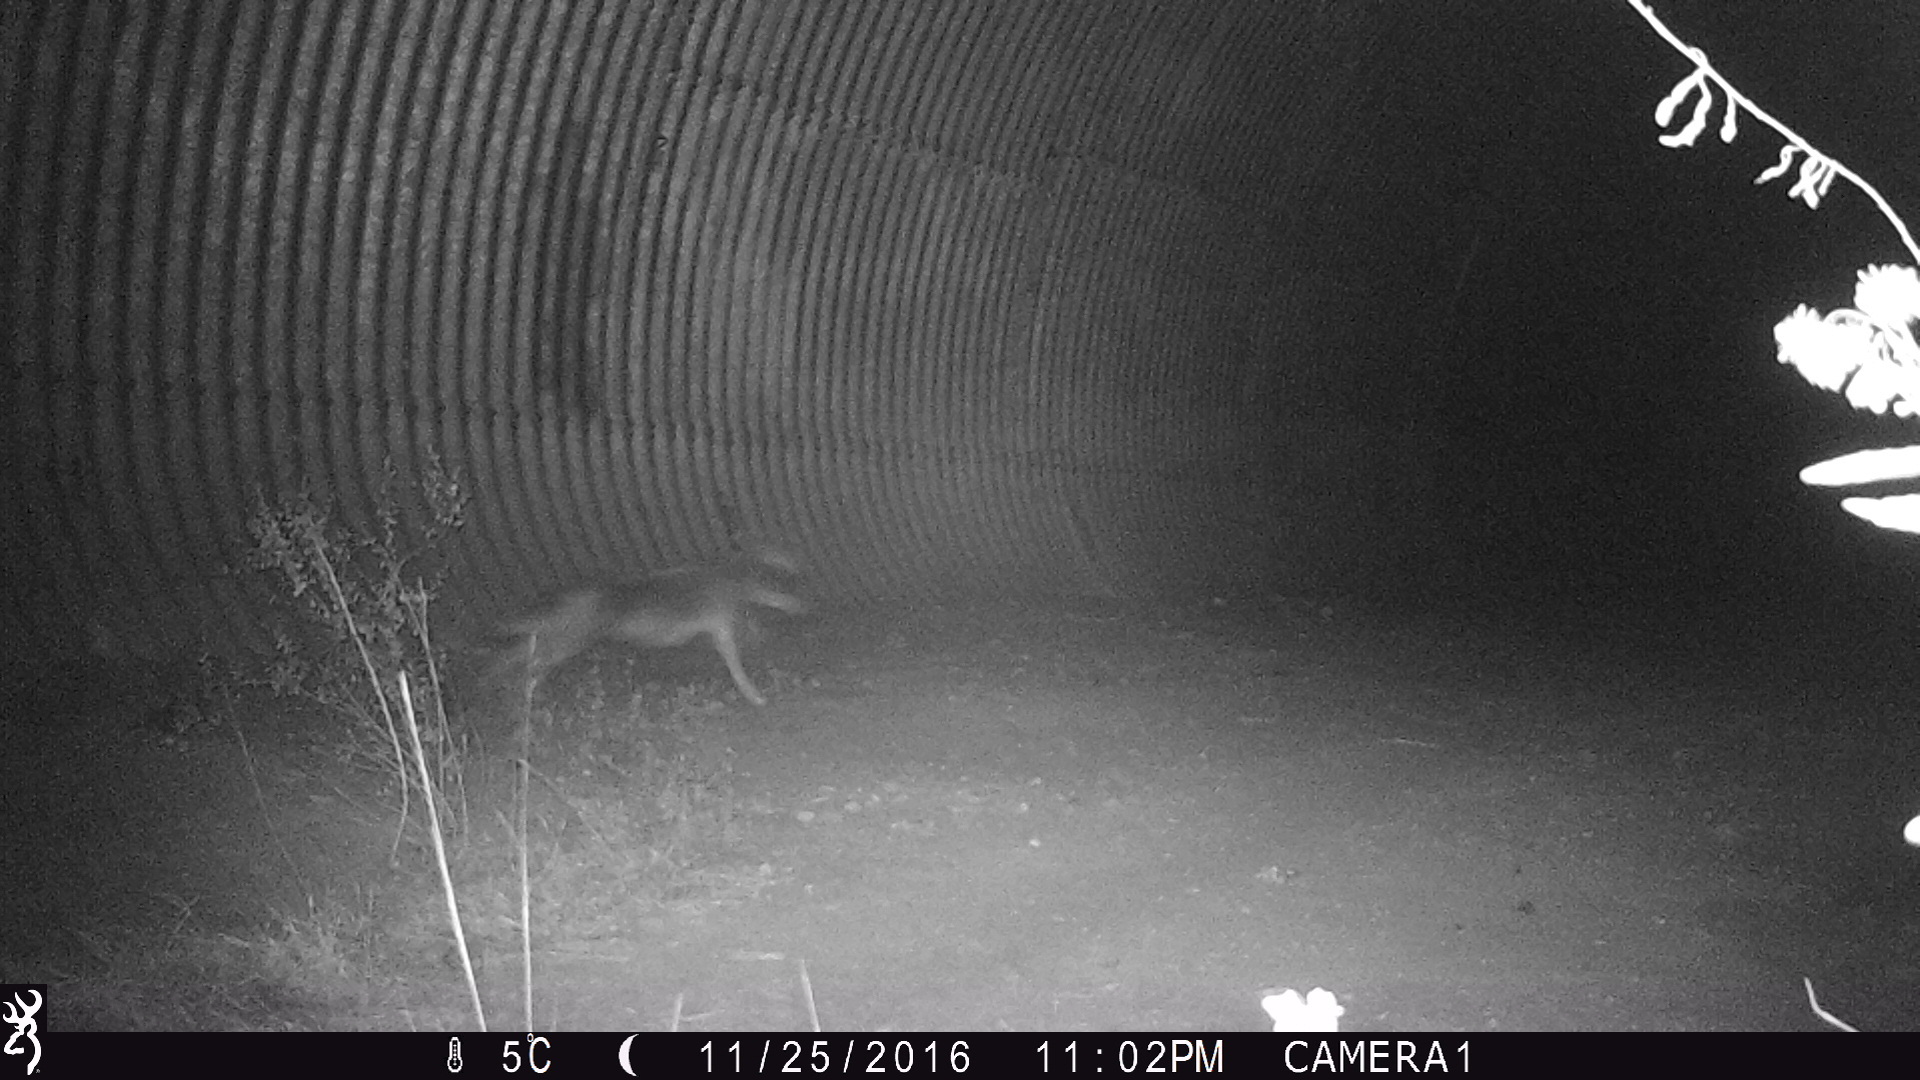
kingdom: Animalia
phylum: Chordata
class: Mammalia
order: Carnivora
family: Canidae
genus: Canis
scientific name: Canis latrans
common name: Coyote
